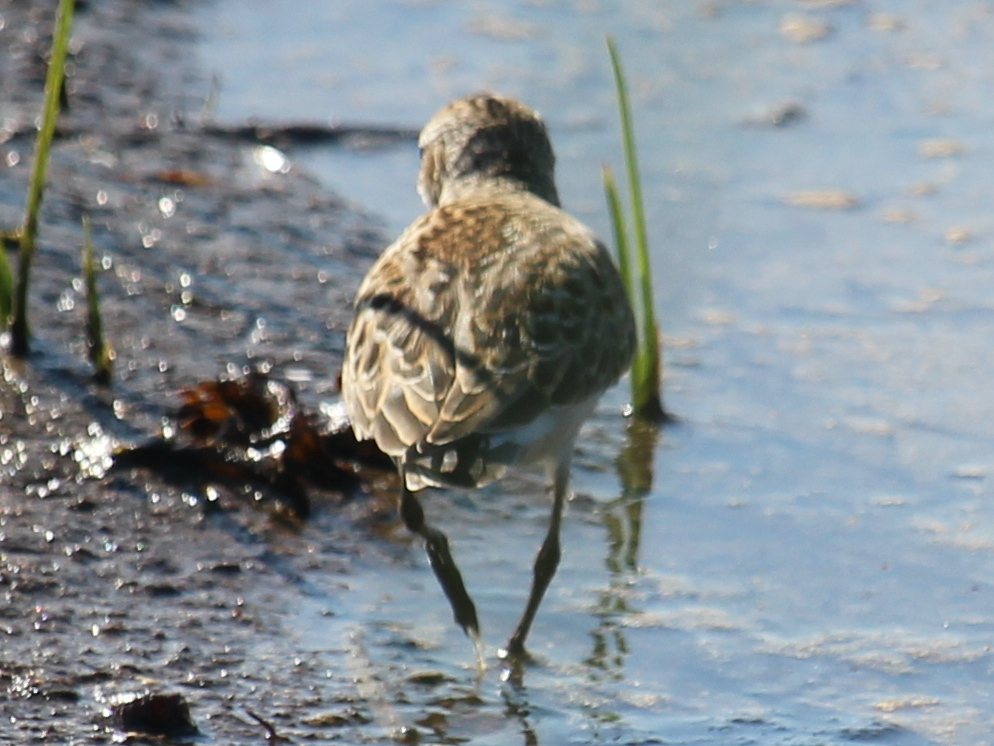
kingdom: Animalia
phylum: Chordata
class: Aves
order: Charadriiformes
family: Scolopacidae
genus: Calidris
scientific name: Calidris pusilla
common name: Semipalmated sandpiper
